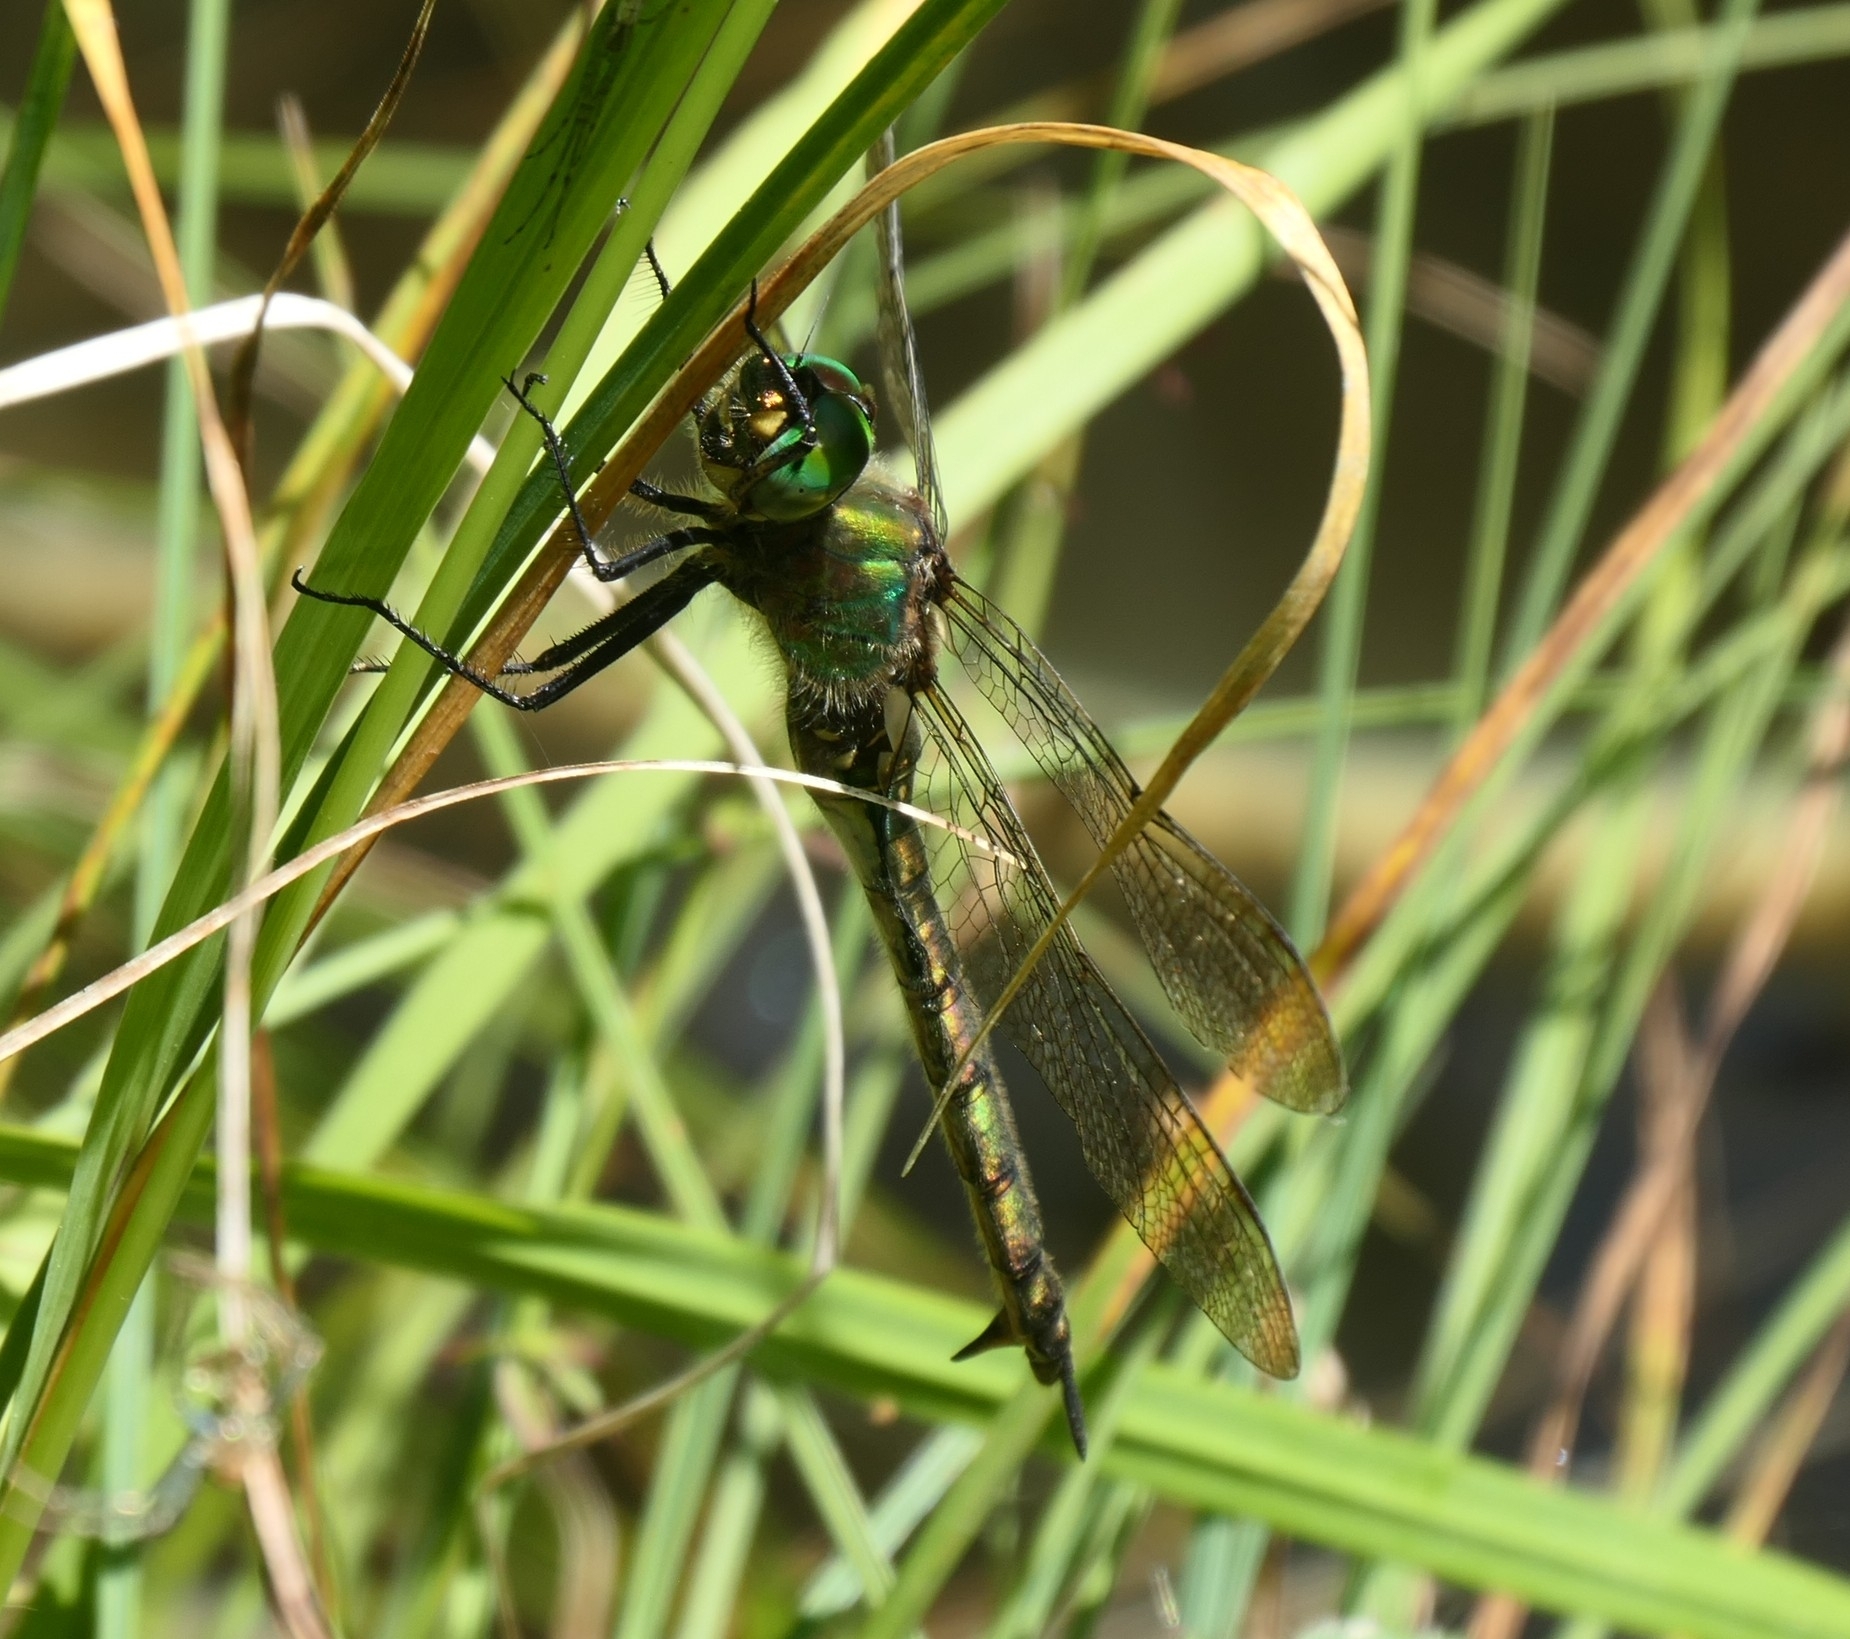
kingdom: Animalia
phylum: Arthropoda
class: Insecta
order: Odonata
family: Corduliidae
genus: Somatochlora
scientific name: Somatochlora metallica
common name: Brilliant emerald
